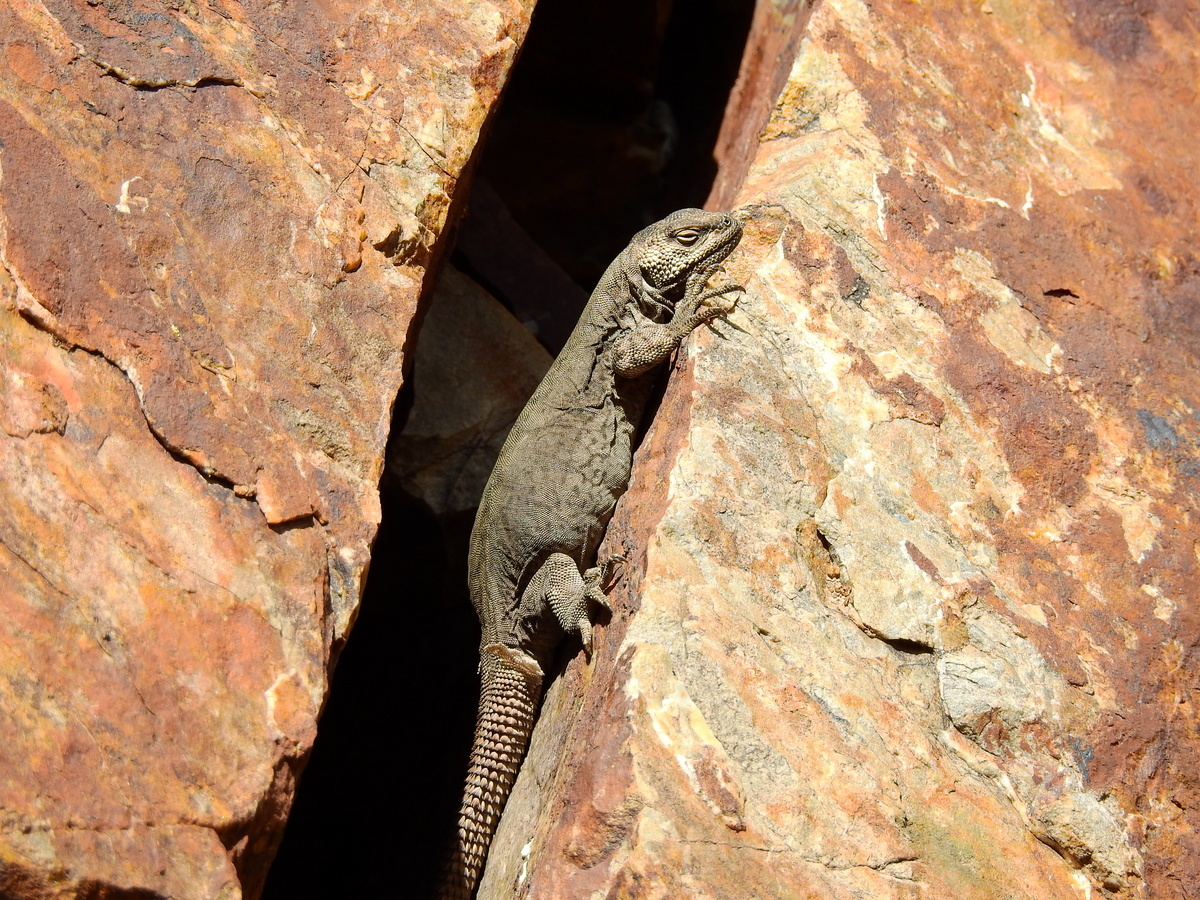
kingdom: Animalia
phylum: Chordata
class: Squamata
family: Liolaemidae
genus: Phymaturus
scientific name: Phymaturus palluma
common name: High mountain lizard
